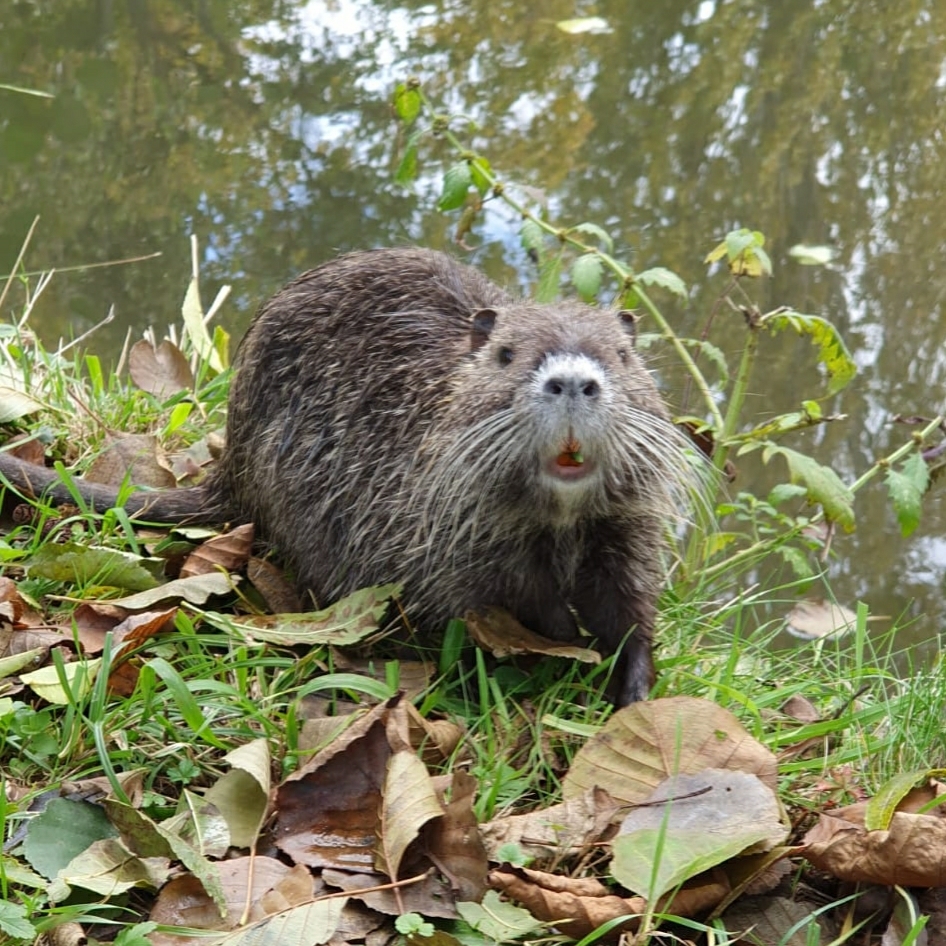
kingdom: Animalia
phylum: Chordata
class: Mammalia
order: Rodentia
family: Myocastoridae
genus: Myocastor
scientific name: Myocastor coypus
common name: Coypu
